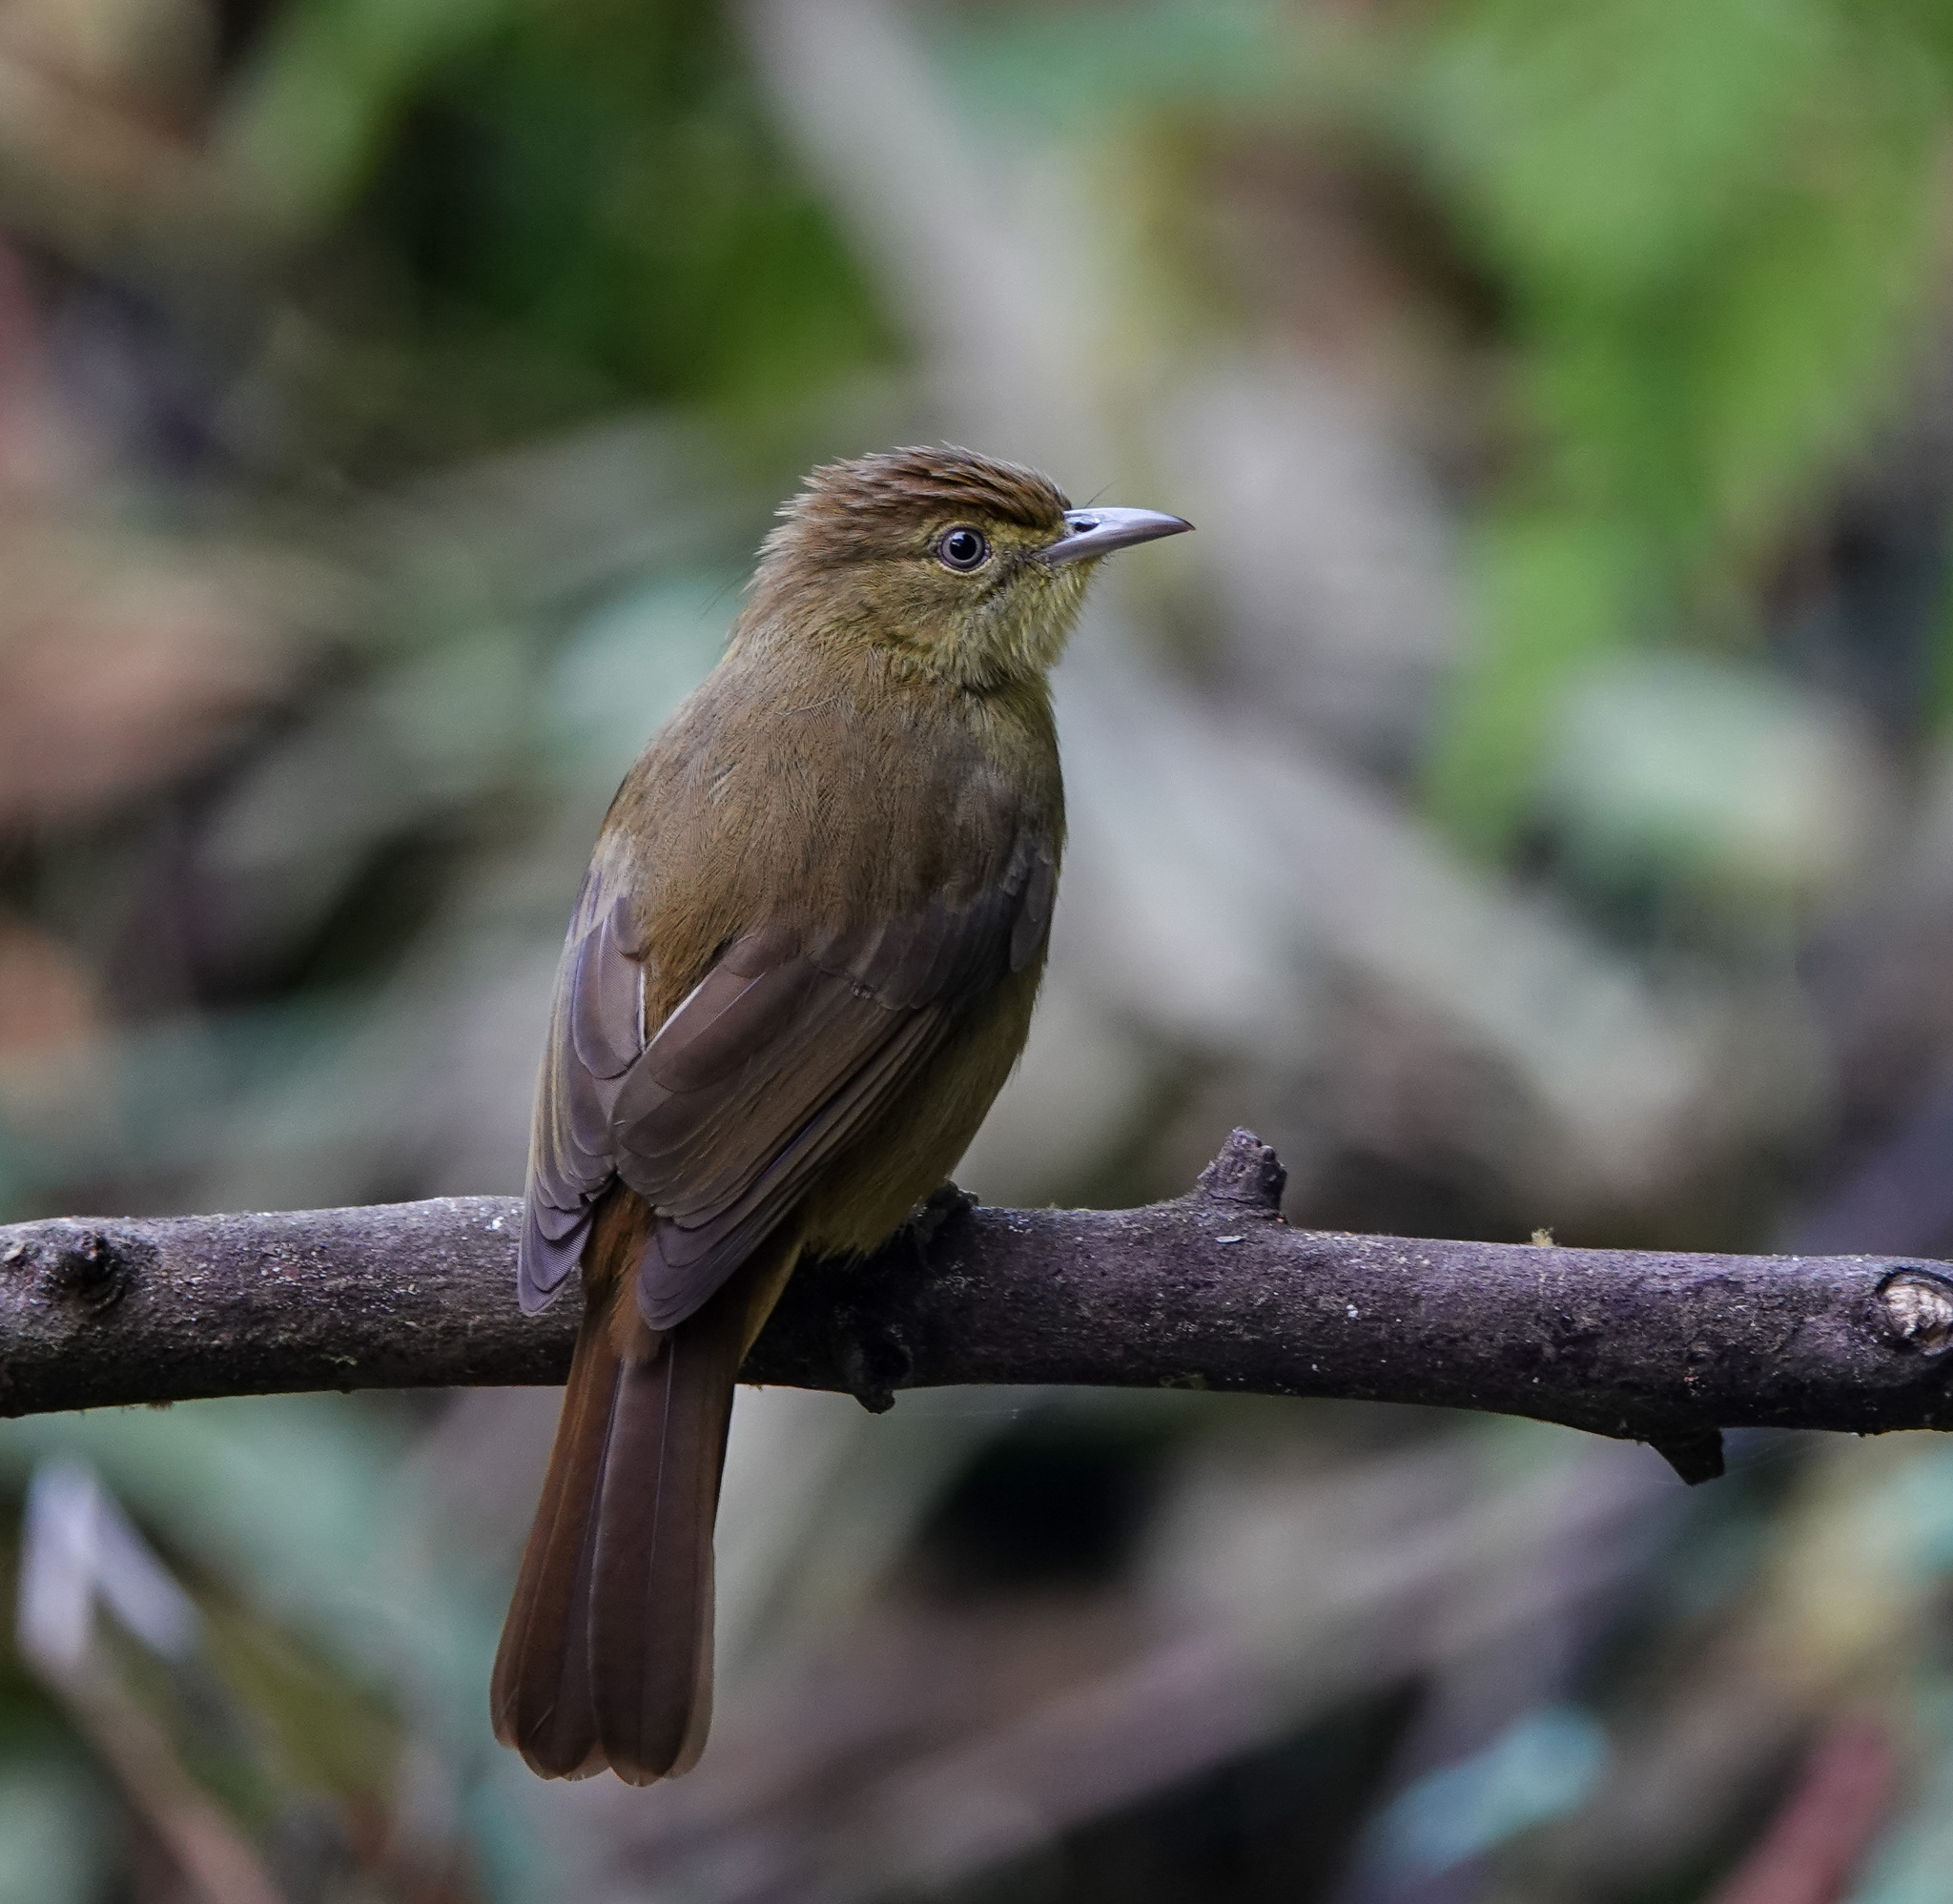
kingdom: Animalia
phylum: Chordata
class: Aves
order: Passeriformes
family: Pycnonotidae
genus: Iole
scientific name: Iole virescens
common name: Olive bulbul
